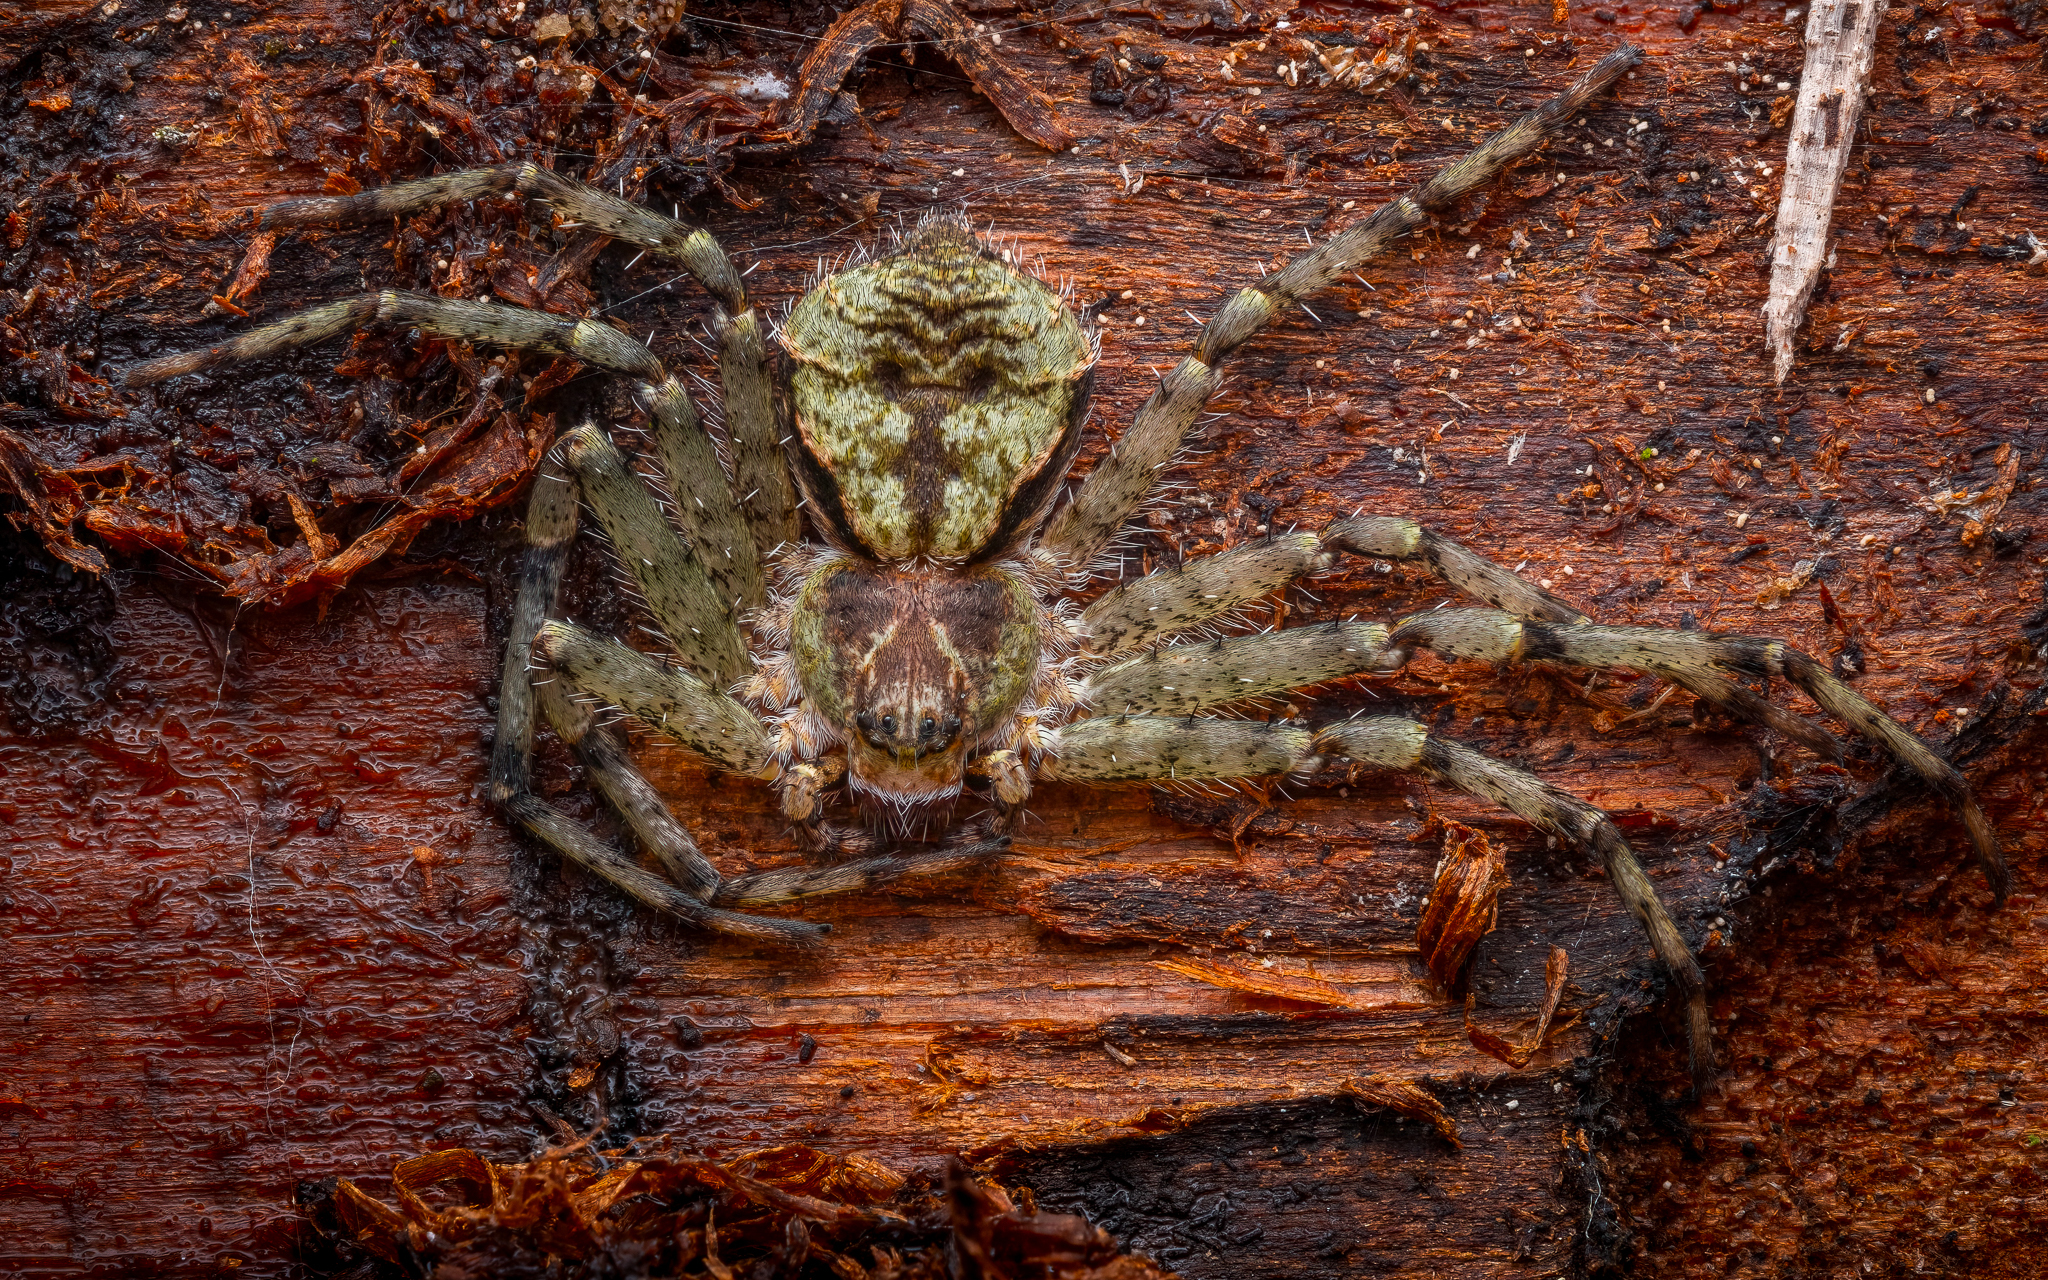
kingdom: Animalia
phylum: Arthropoda
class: Arachnida
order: Araneae
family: Philodromidae
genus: Philodromus
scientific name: Philodromus margaritatus
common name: Lichen running-spider
